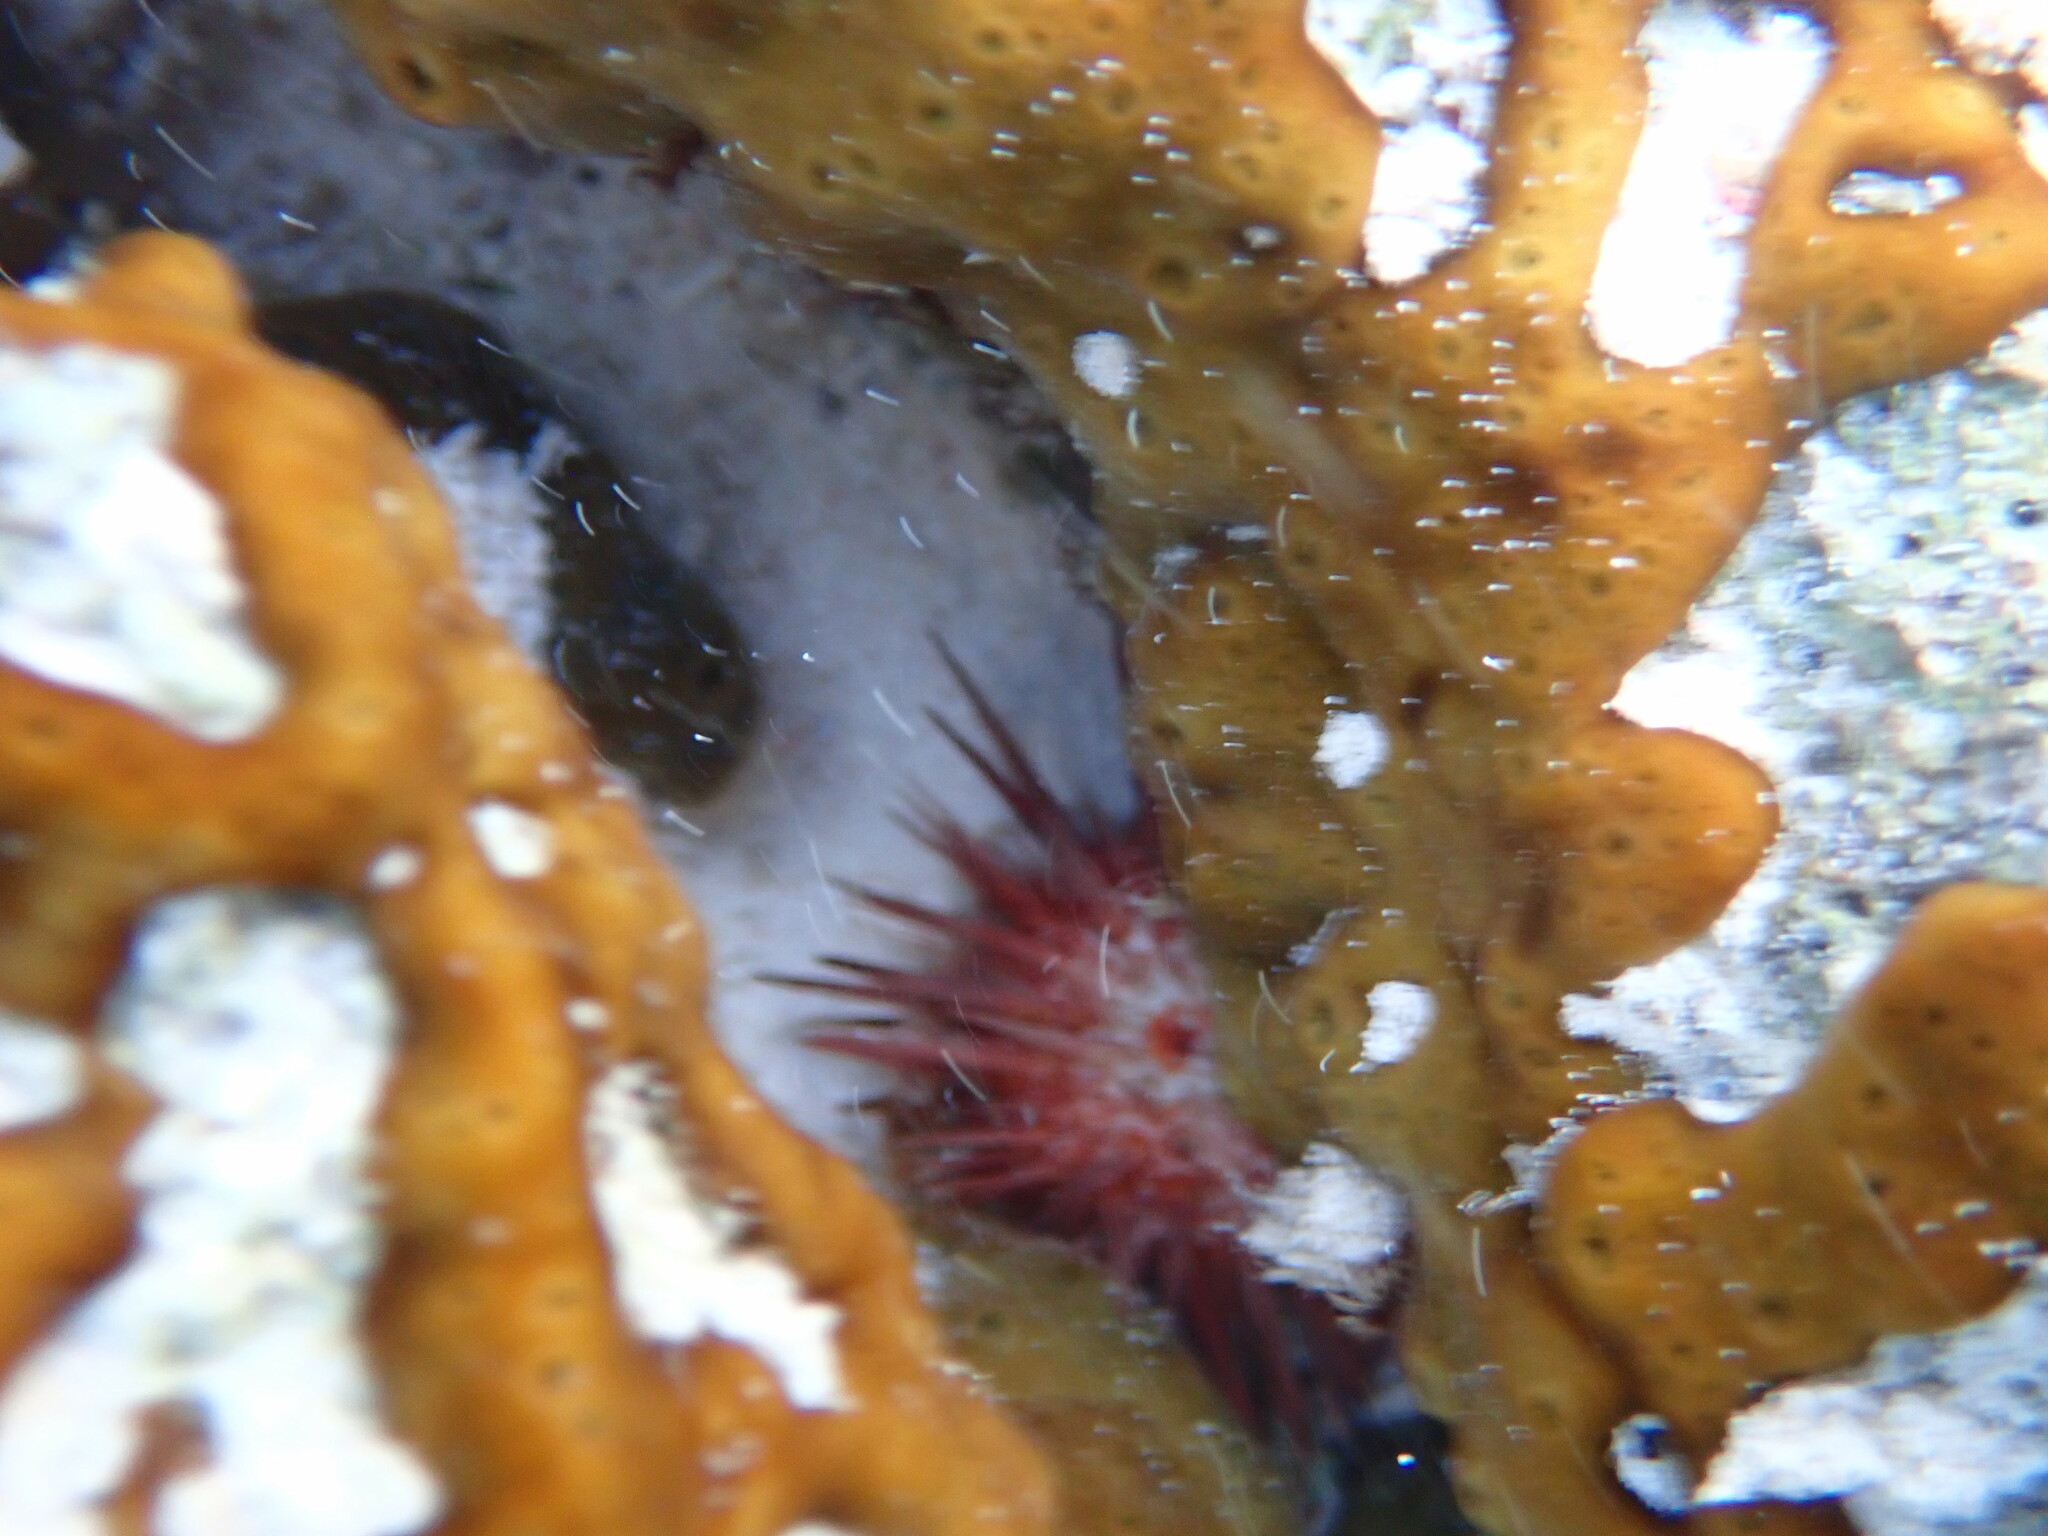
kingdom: Animalia
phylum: Echinodermata
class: Echinoidea
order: Camarodonta
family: Echinometridae
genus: Echinometra
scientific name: Echinometra lucunter
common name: Rock urchin
